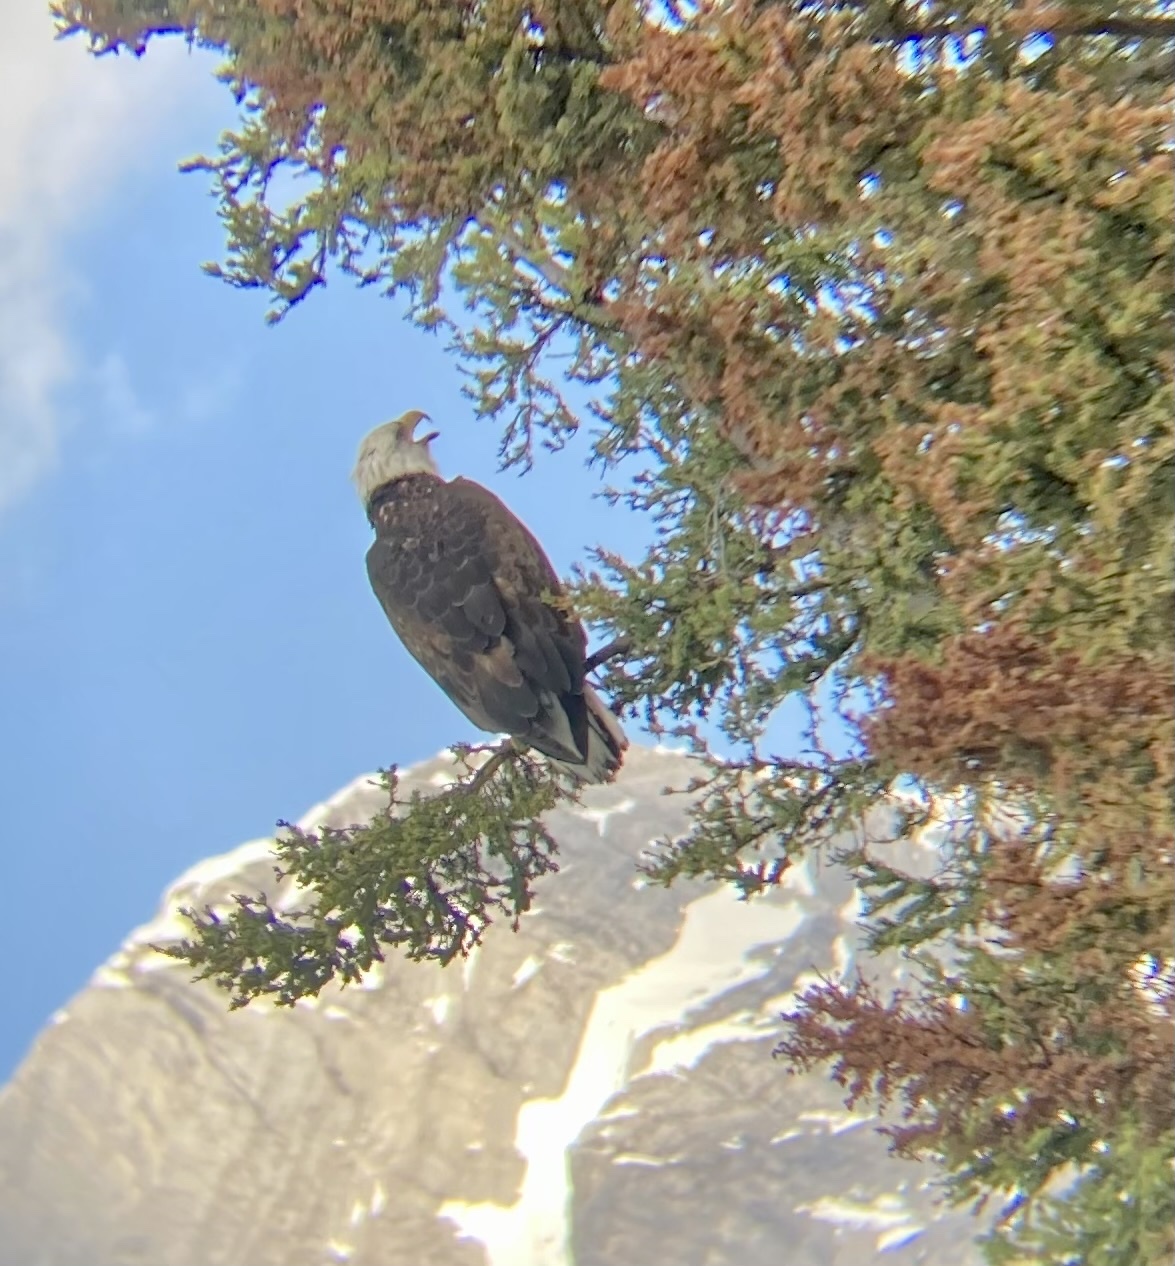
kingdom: Animalia
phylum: Chordata
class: Aves
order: Accipitriformes
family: Accipitridae
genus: Haliaeetus
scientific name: Haliaeetus leucocephalus
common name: Bald eagle
